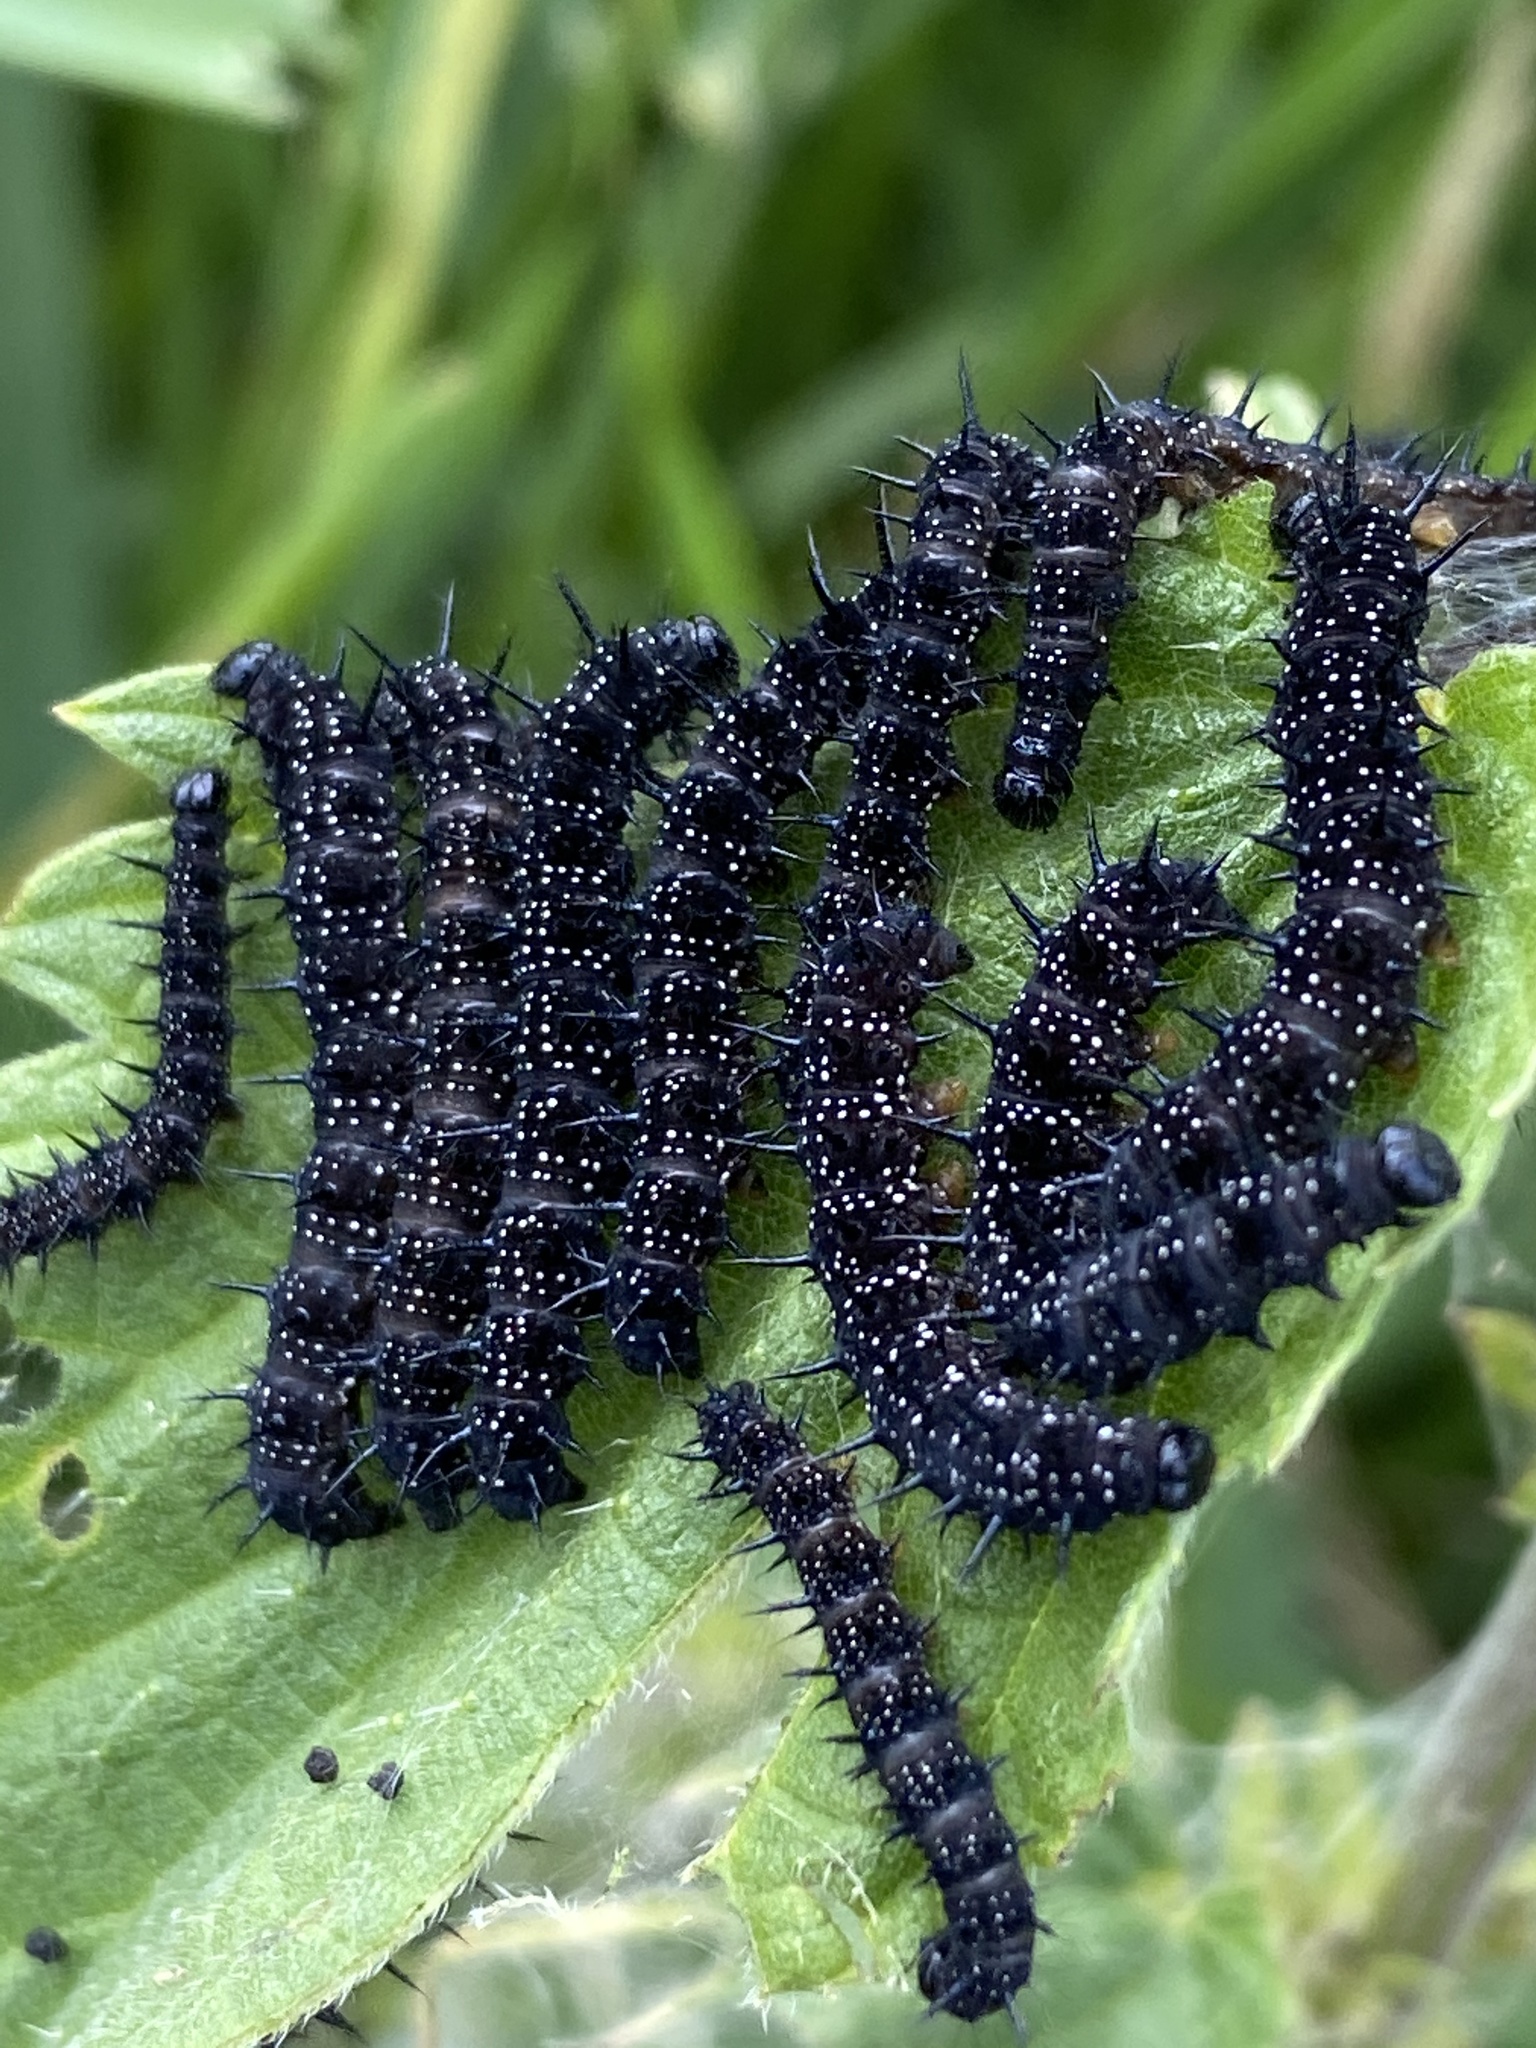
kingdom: Animalia
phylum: Arthropoda
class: Insecta
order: Lepidoptera
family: Nymphalidae
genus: Aglais
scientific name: Aglais io
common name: Peacock
